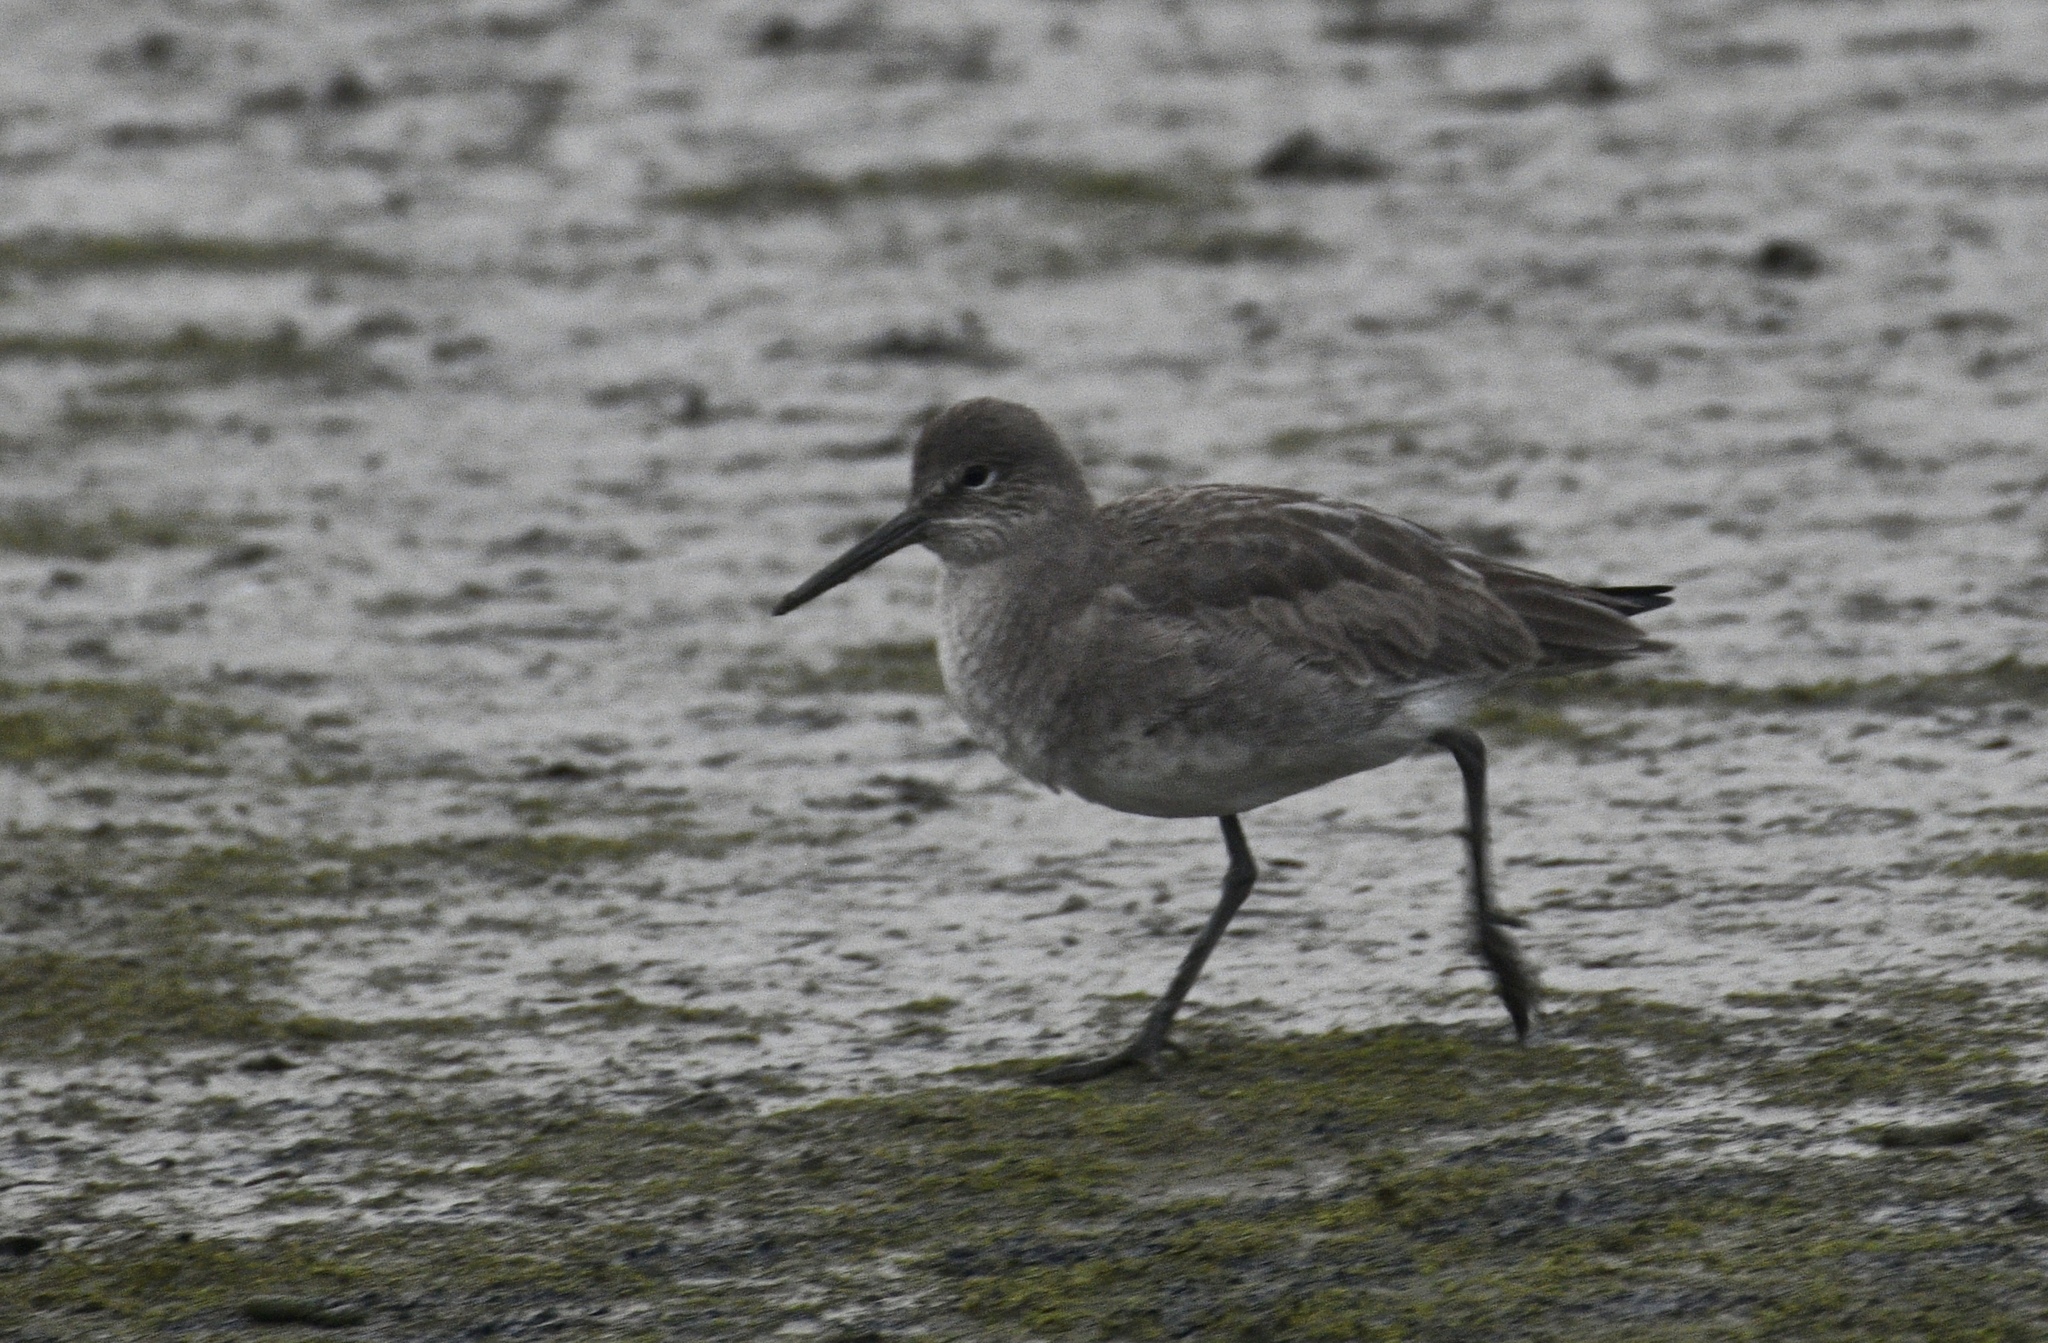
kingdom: Animalia
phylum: Chordata
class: Aves
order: Charadriiformes
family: Scolopacidae
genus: Tringa
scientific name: Tringa semipalmata
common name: Willet
